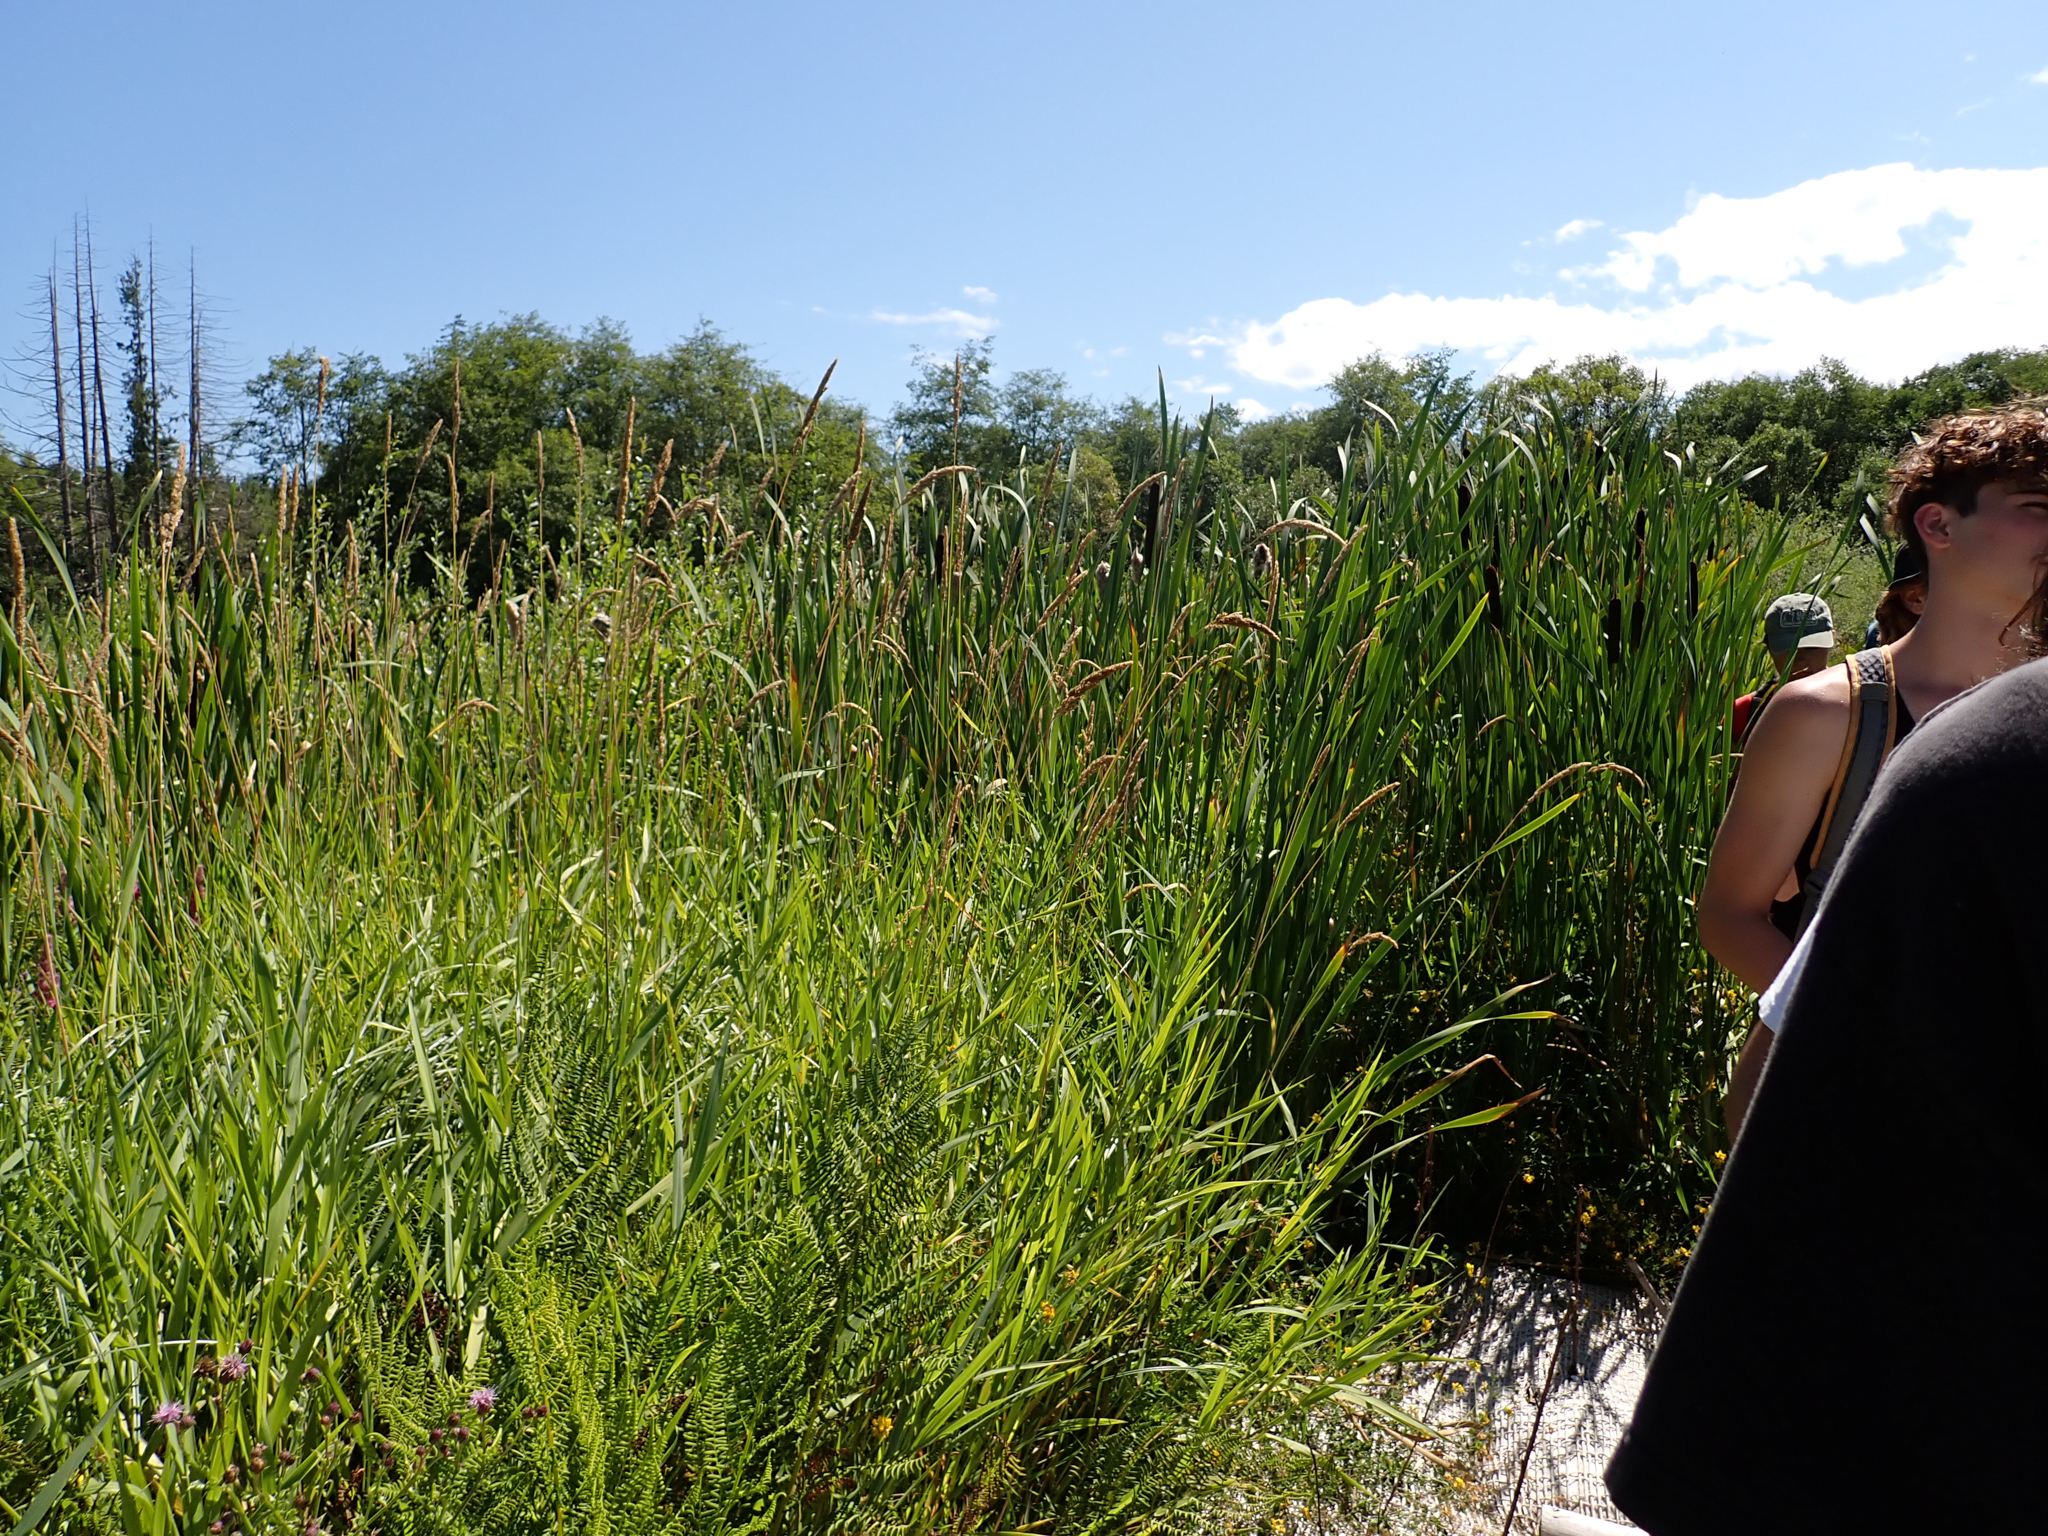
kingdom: Plantae
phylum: Tracheophyta
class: Liliopsida
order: Poales
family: Poaceae
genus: Phalaris
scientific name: Phalaris arundinacea
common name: Reed canary-grass
